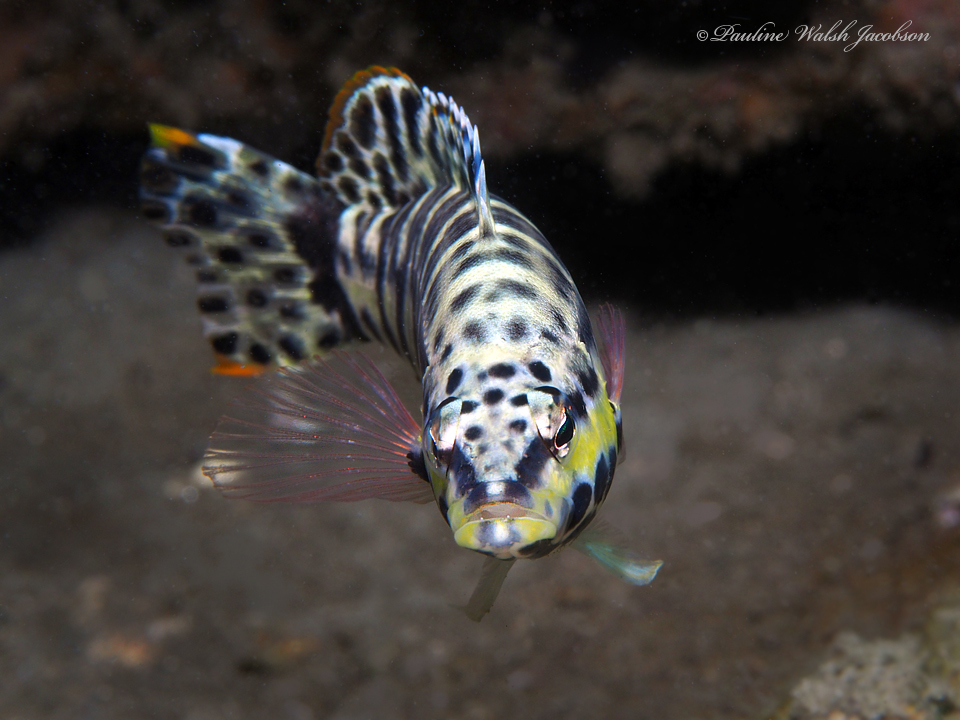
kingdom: Animalia
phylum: Chordata
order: Perciformes
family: Serranidae
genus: Serranus
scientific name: Serranus tigrinus
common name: Harlequin bass
